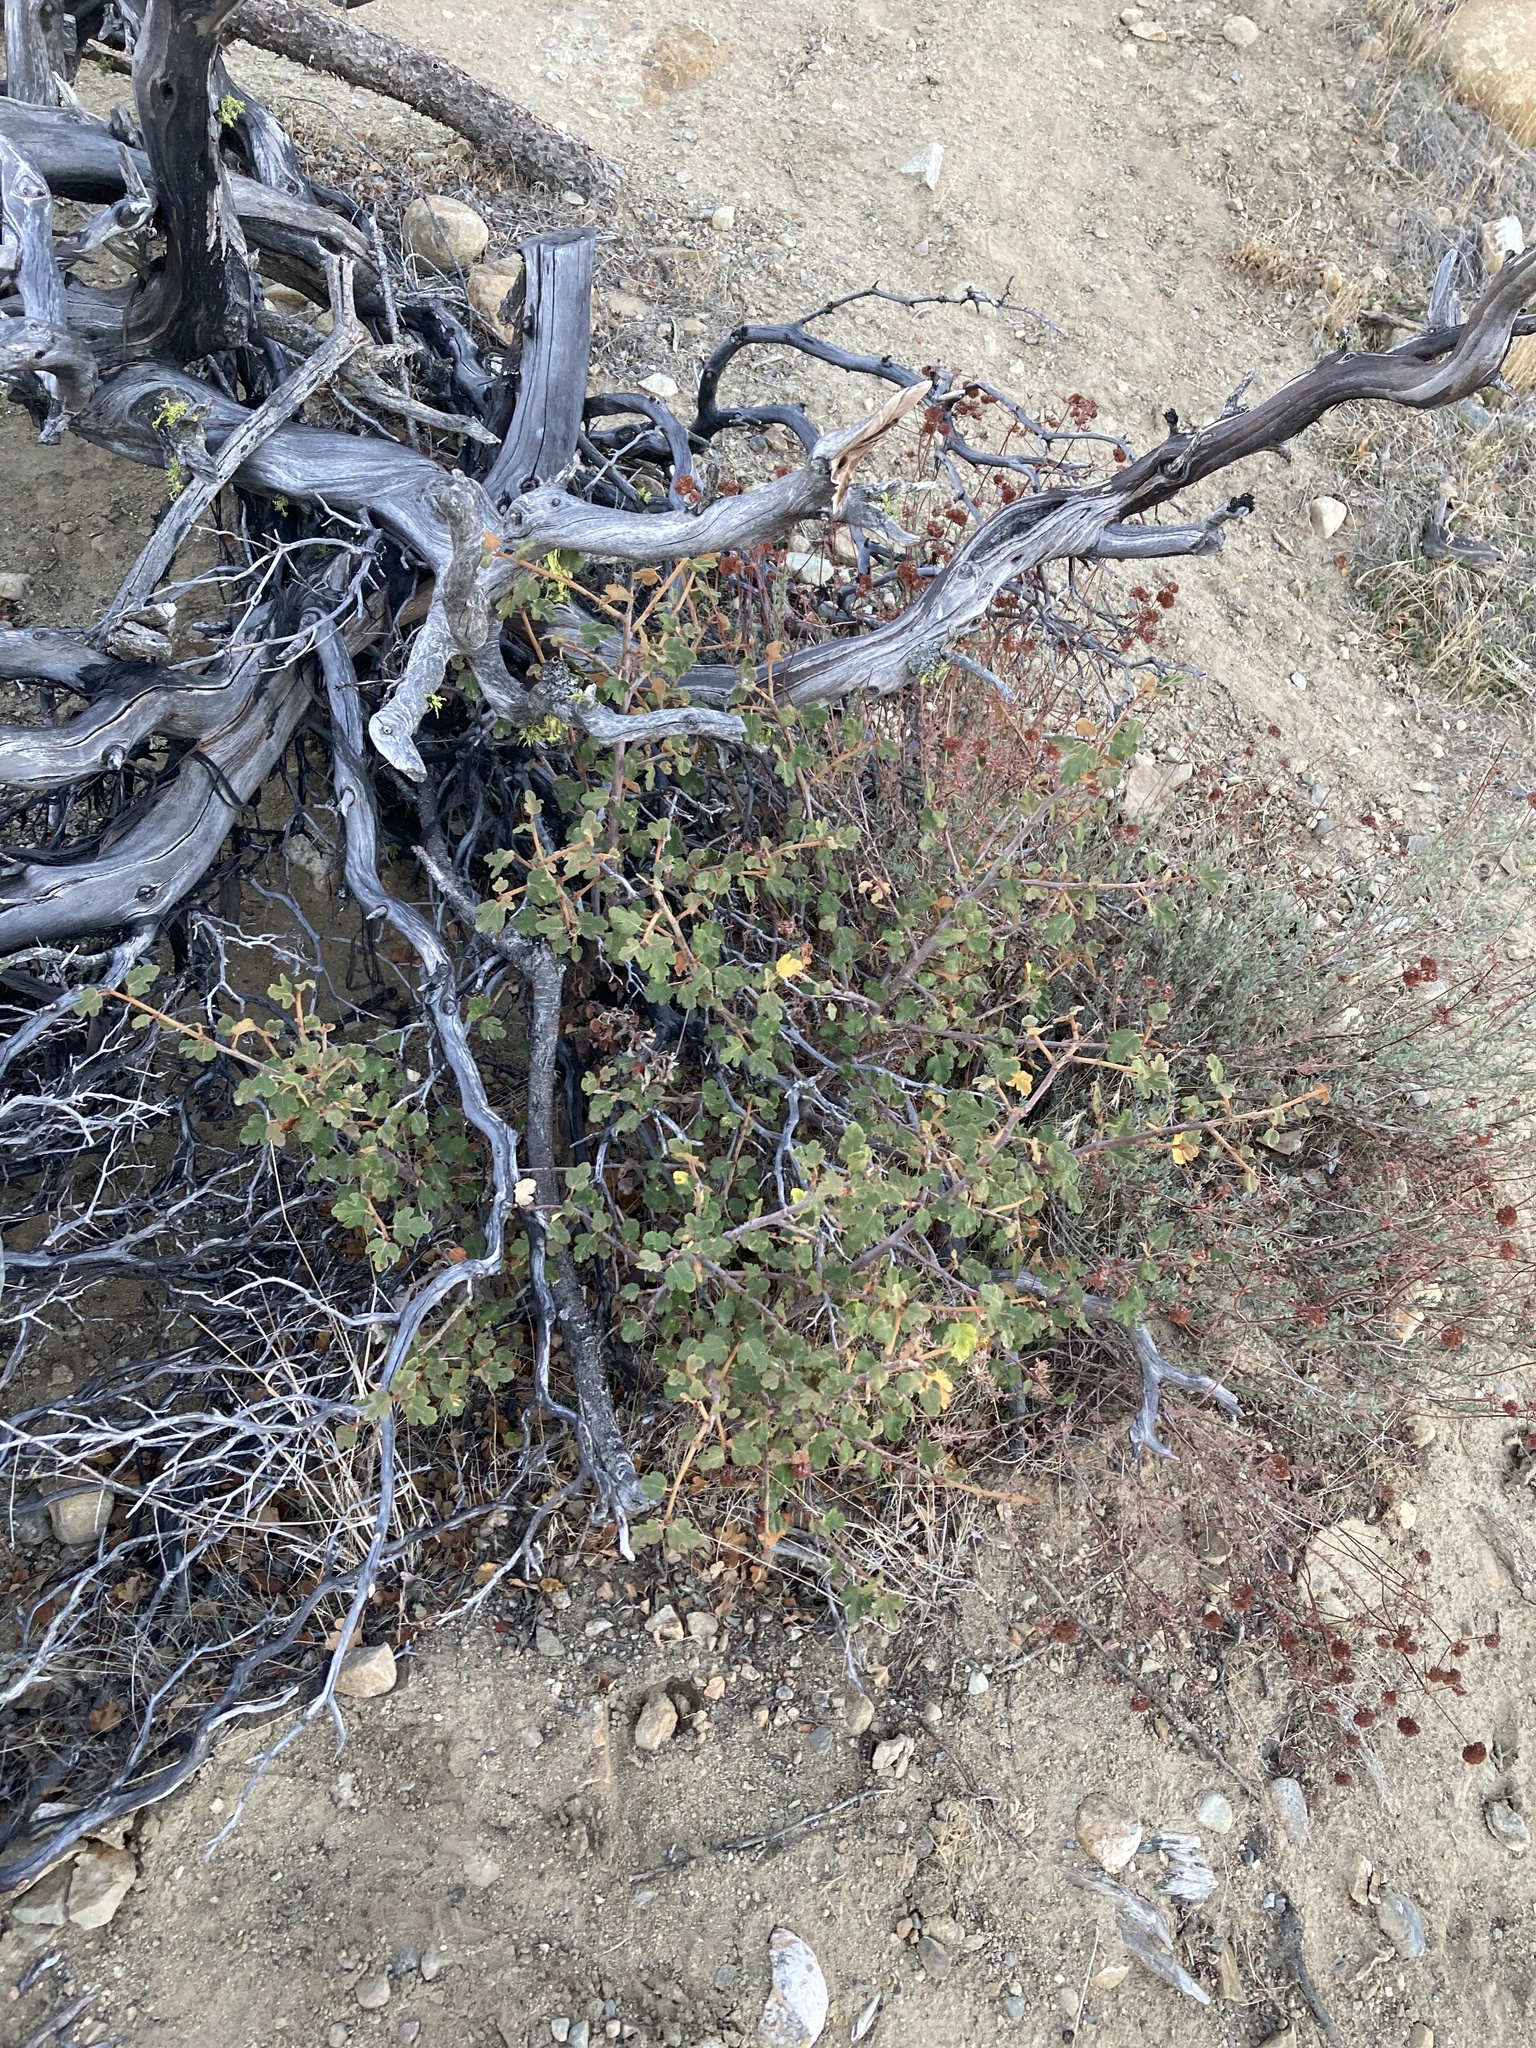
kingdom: Plantae
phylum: Tracheophyta
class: Magnoliopsida
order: Malvales
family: Malvaceae
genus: Fremontodendron
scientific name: Fremontodendron californicum
